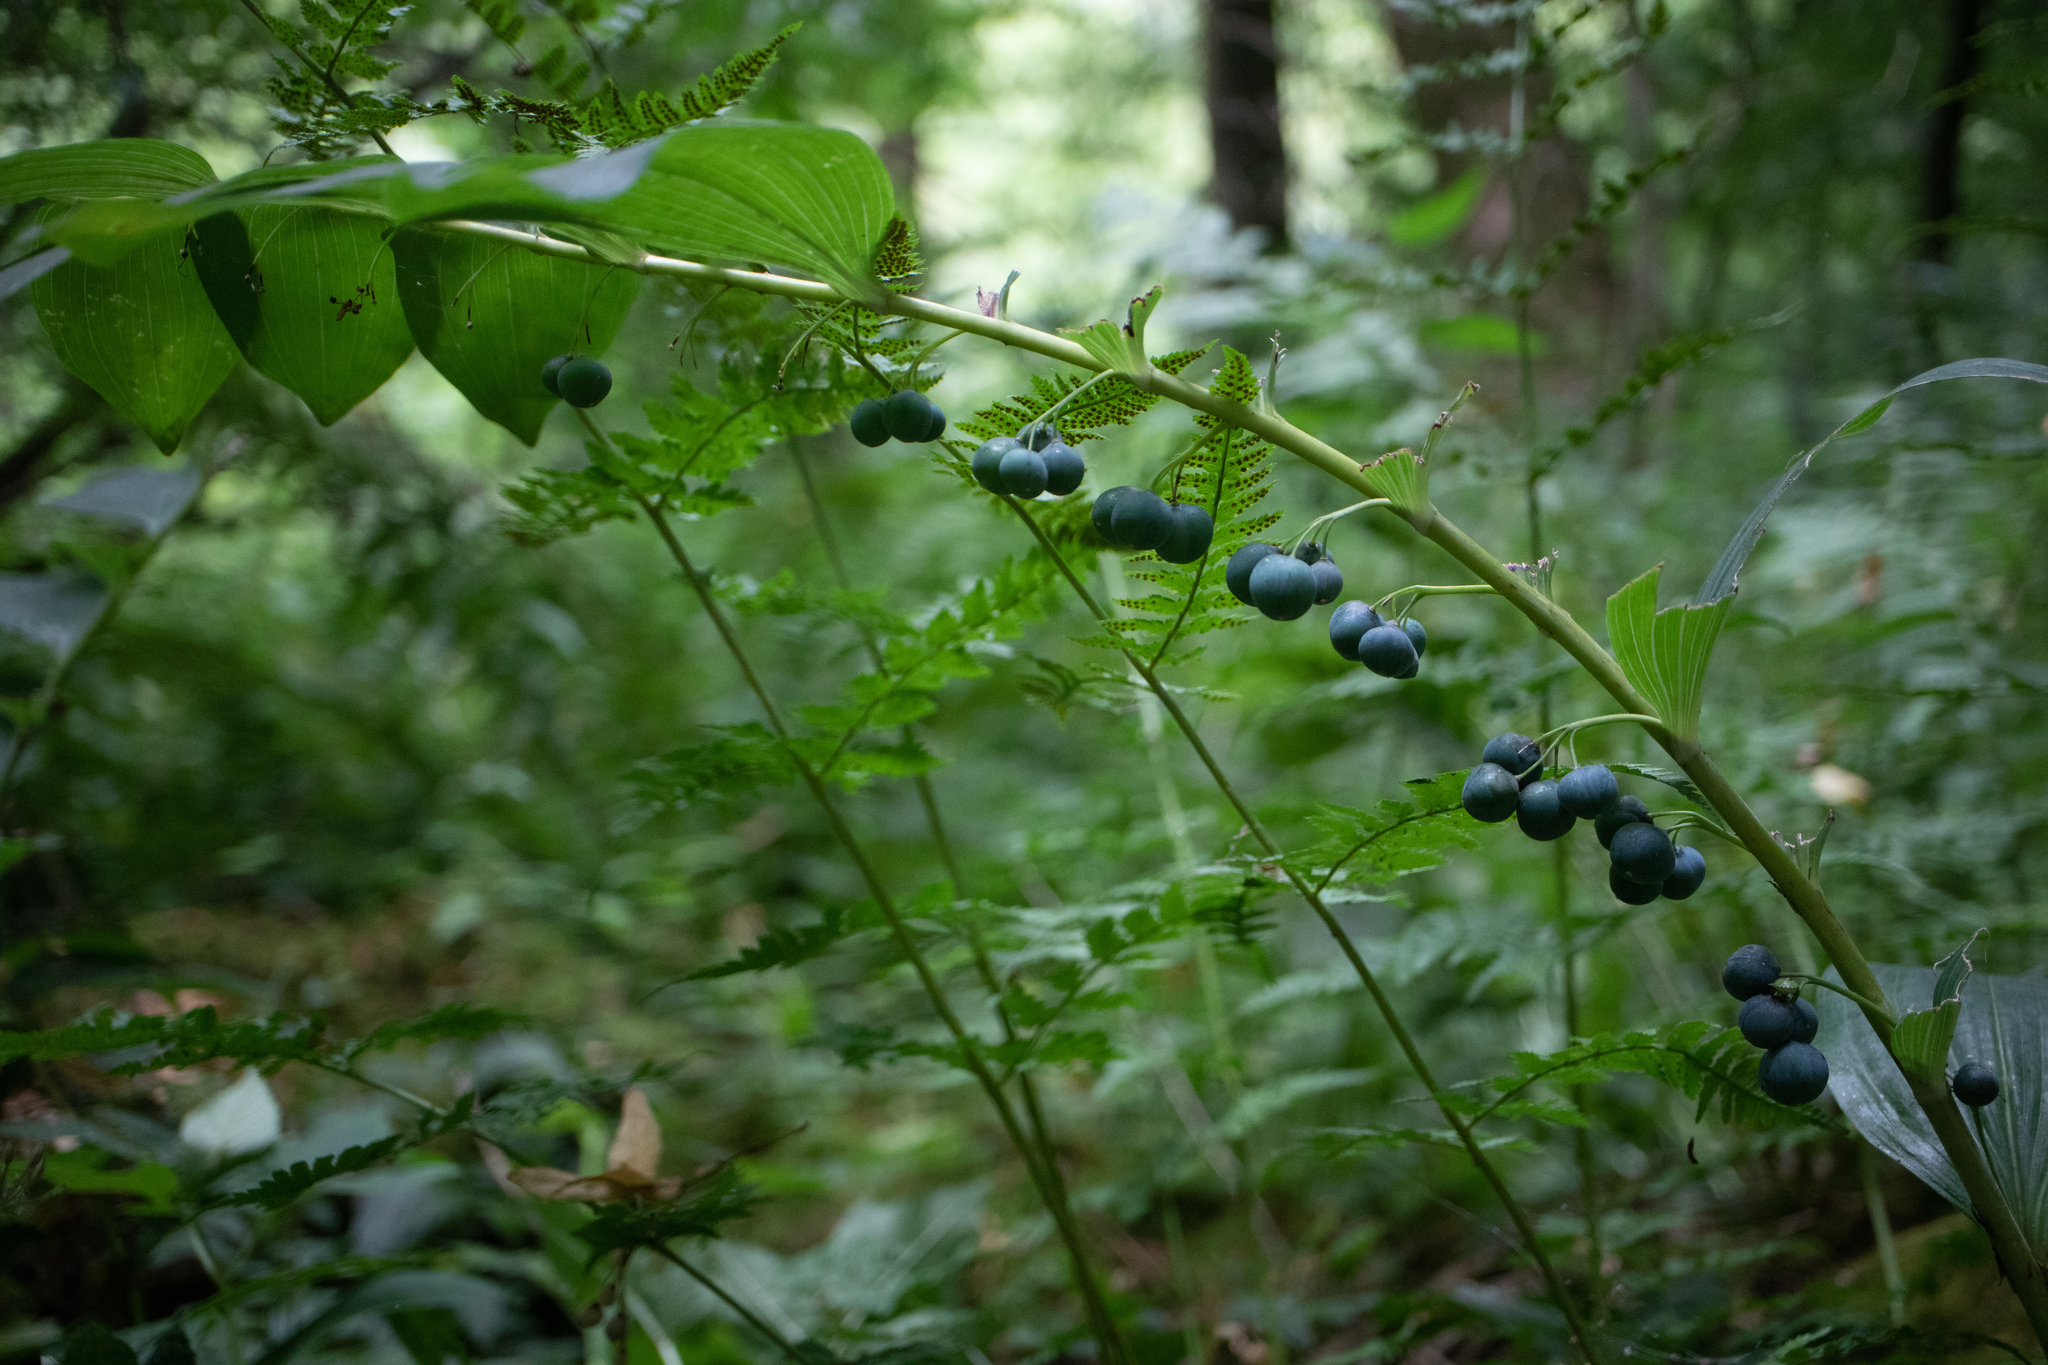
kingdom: Plantae
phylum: Tracheophyta
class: Liliopsida
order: Asparagales
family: Asparagaceae
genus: Polygonatum
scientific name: Polygonatum multiflorum
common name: Solomon's-seal
